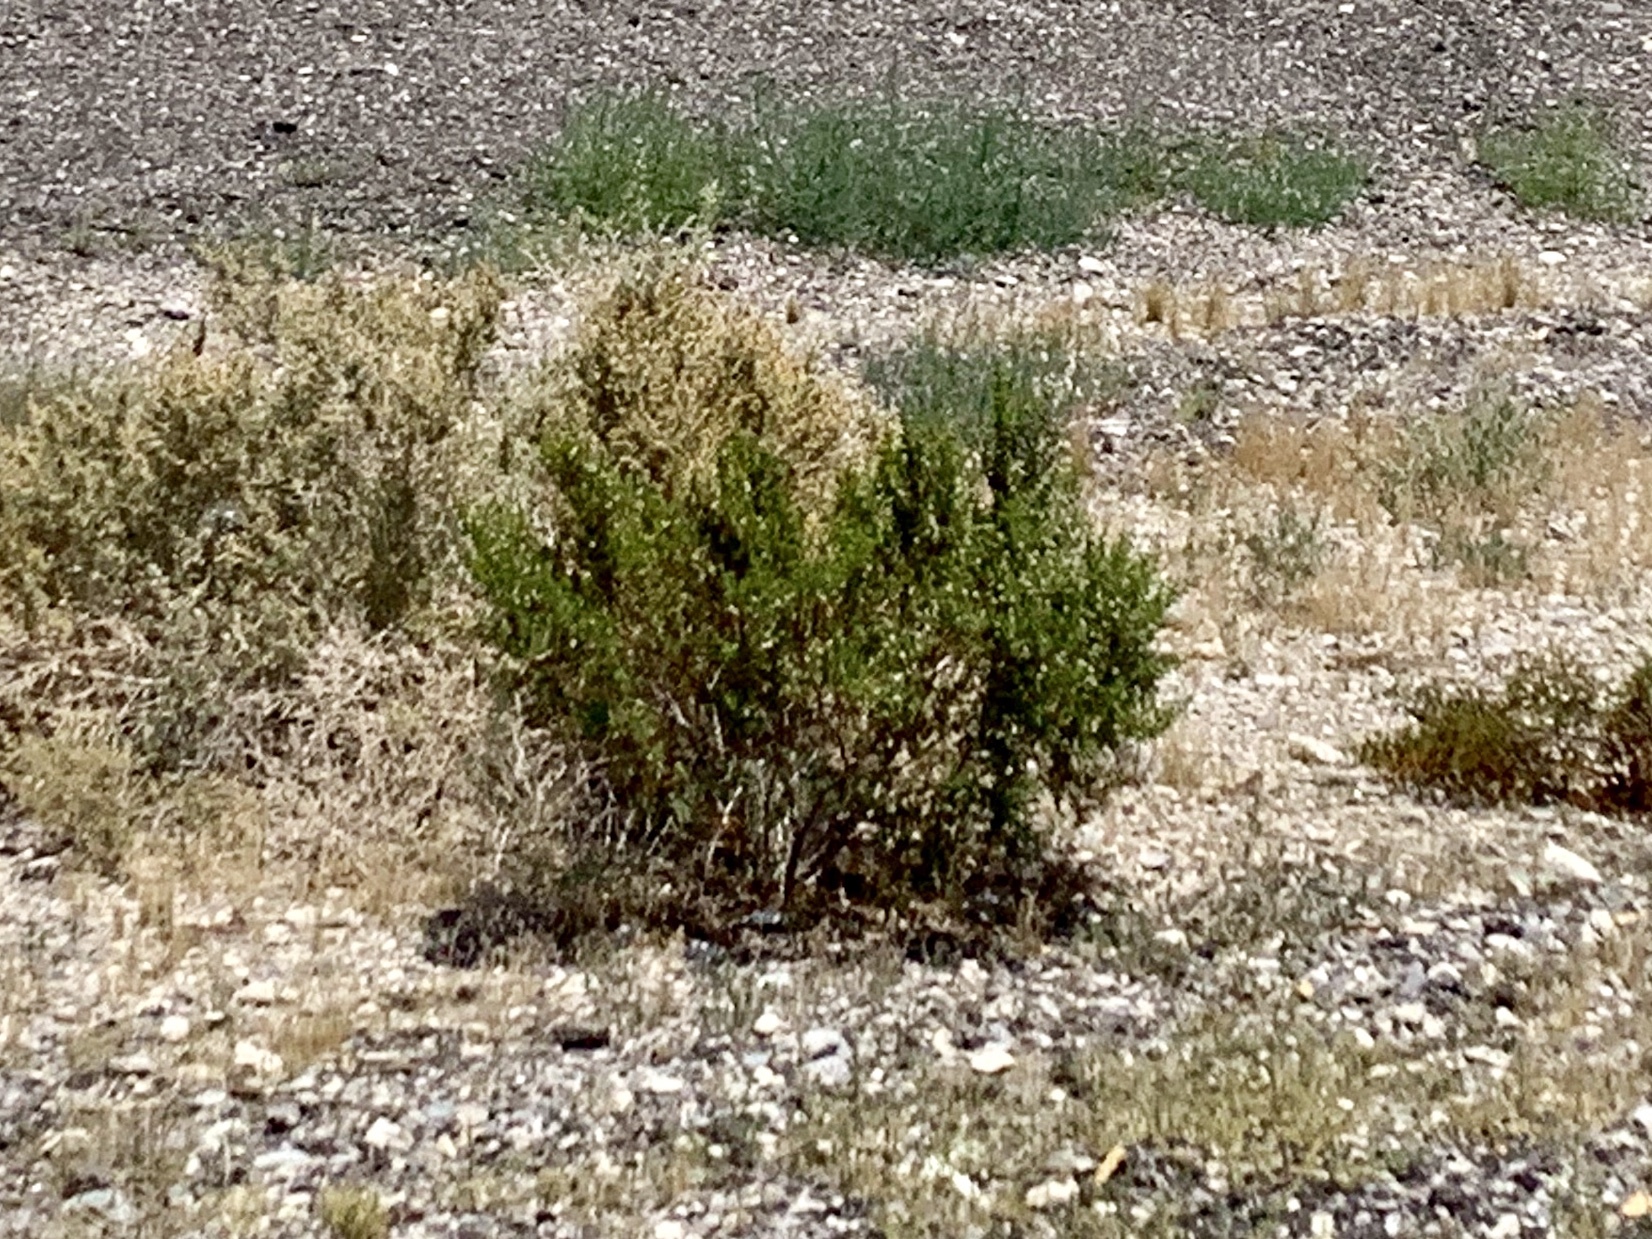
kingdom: Plantae
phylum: Tracheophyta
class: Magnoliopsida
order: Zygophyllales
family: Zygophyllaceae
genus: Larrea
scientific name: Larrea tridentata
